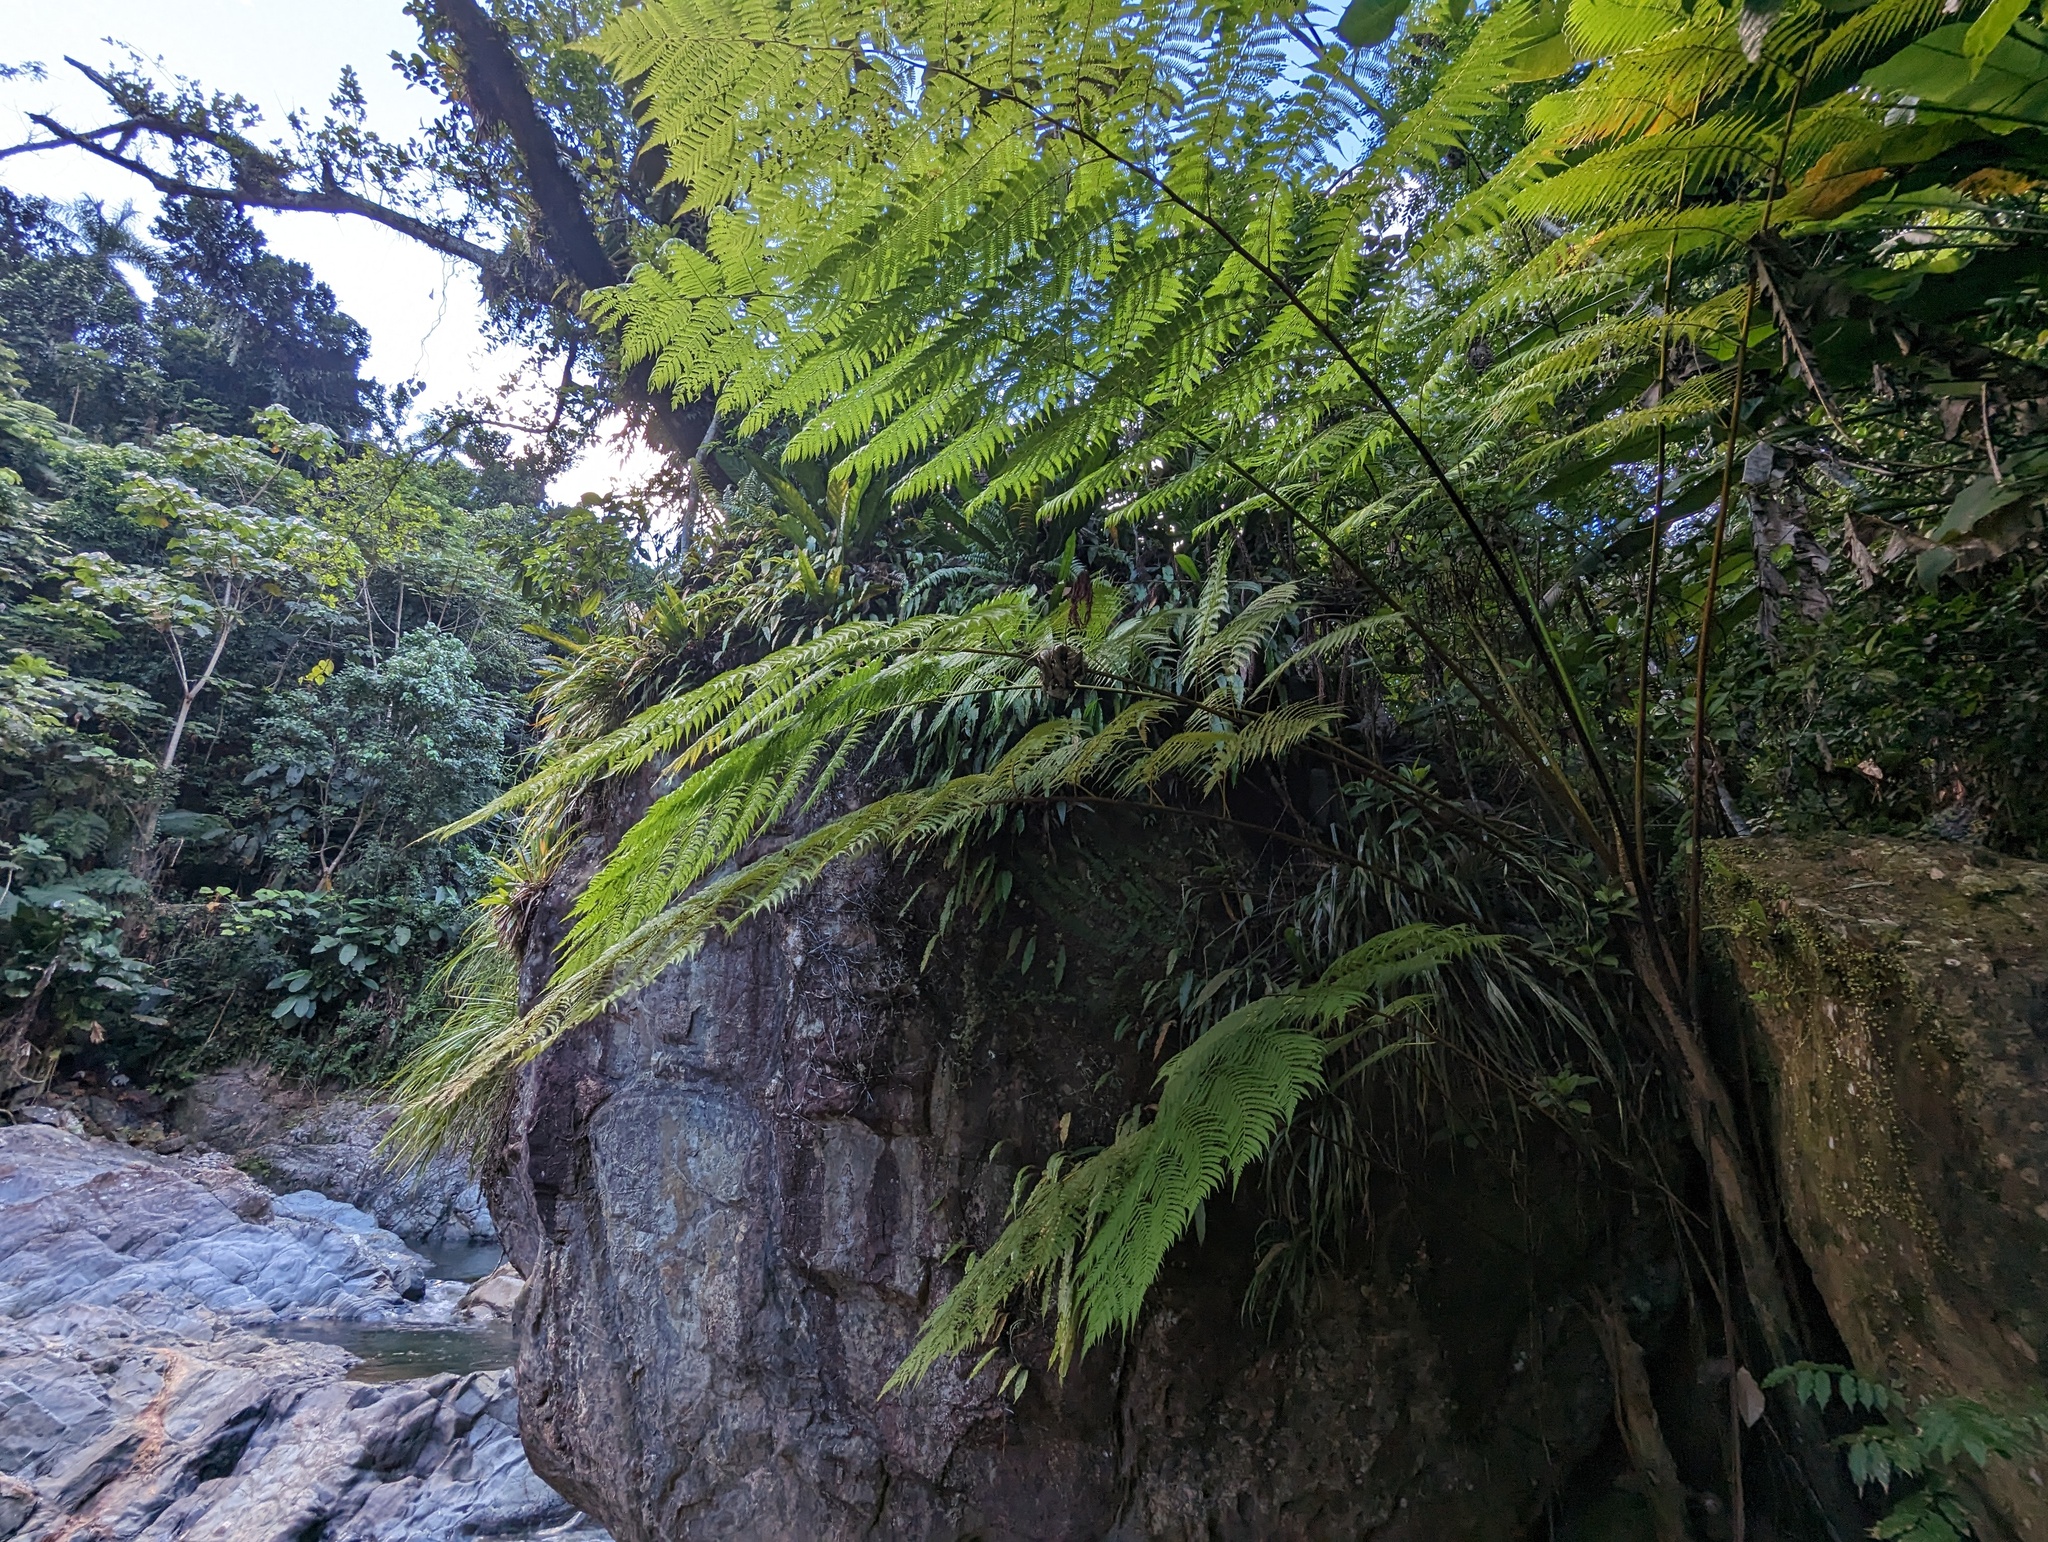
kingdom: Plantae
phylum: Tracheophyta
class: Polypodiopsida
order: Cyatheales
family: Cyatheaceae
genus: Cyathea
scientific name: Cyathea arborea
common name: West indian treefern
